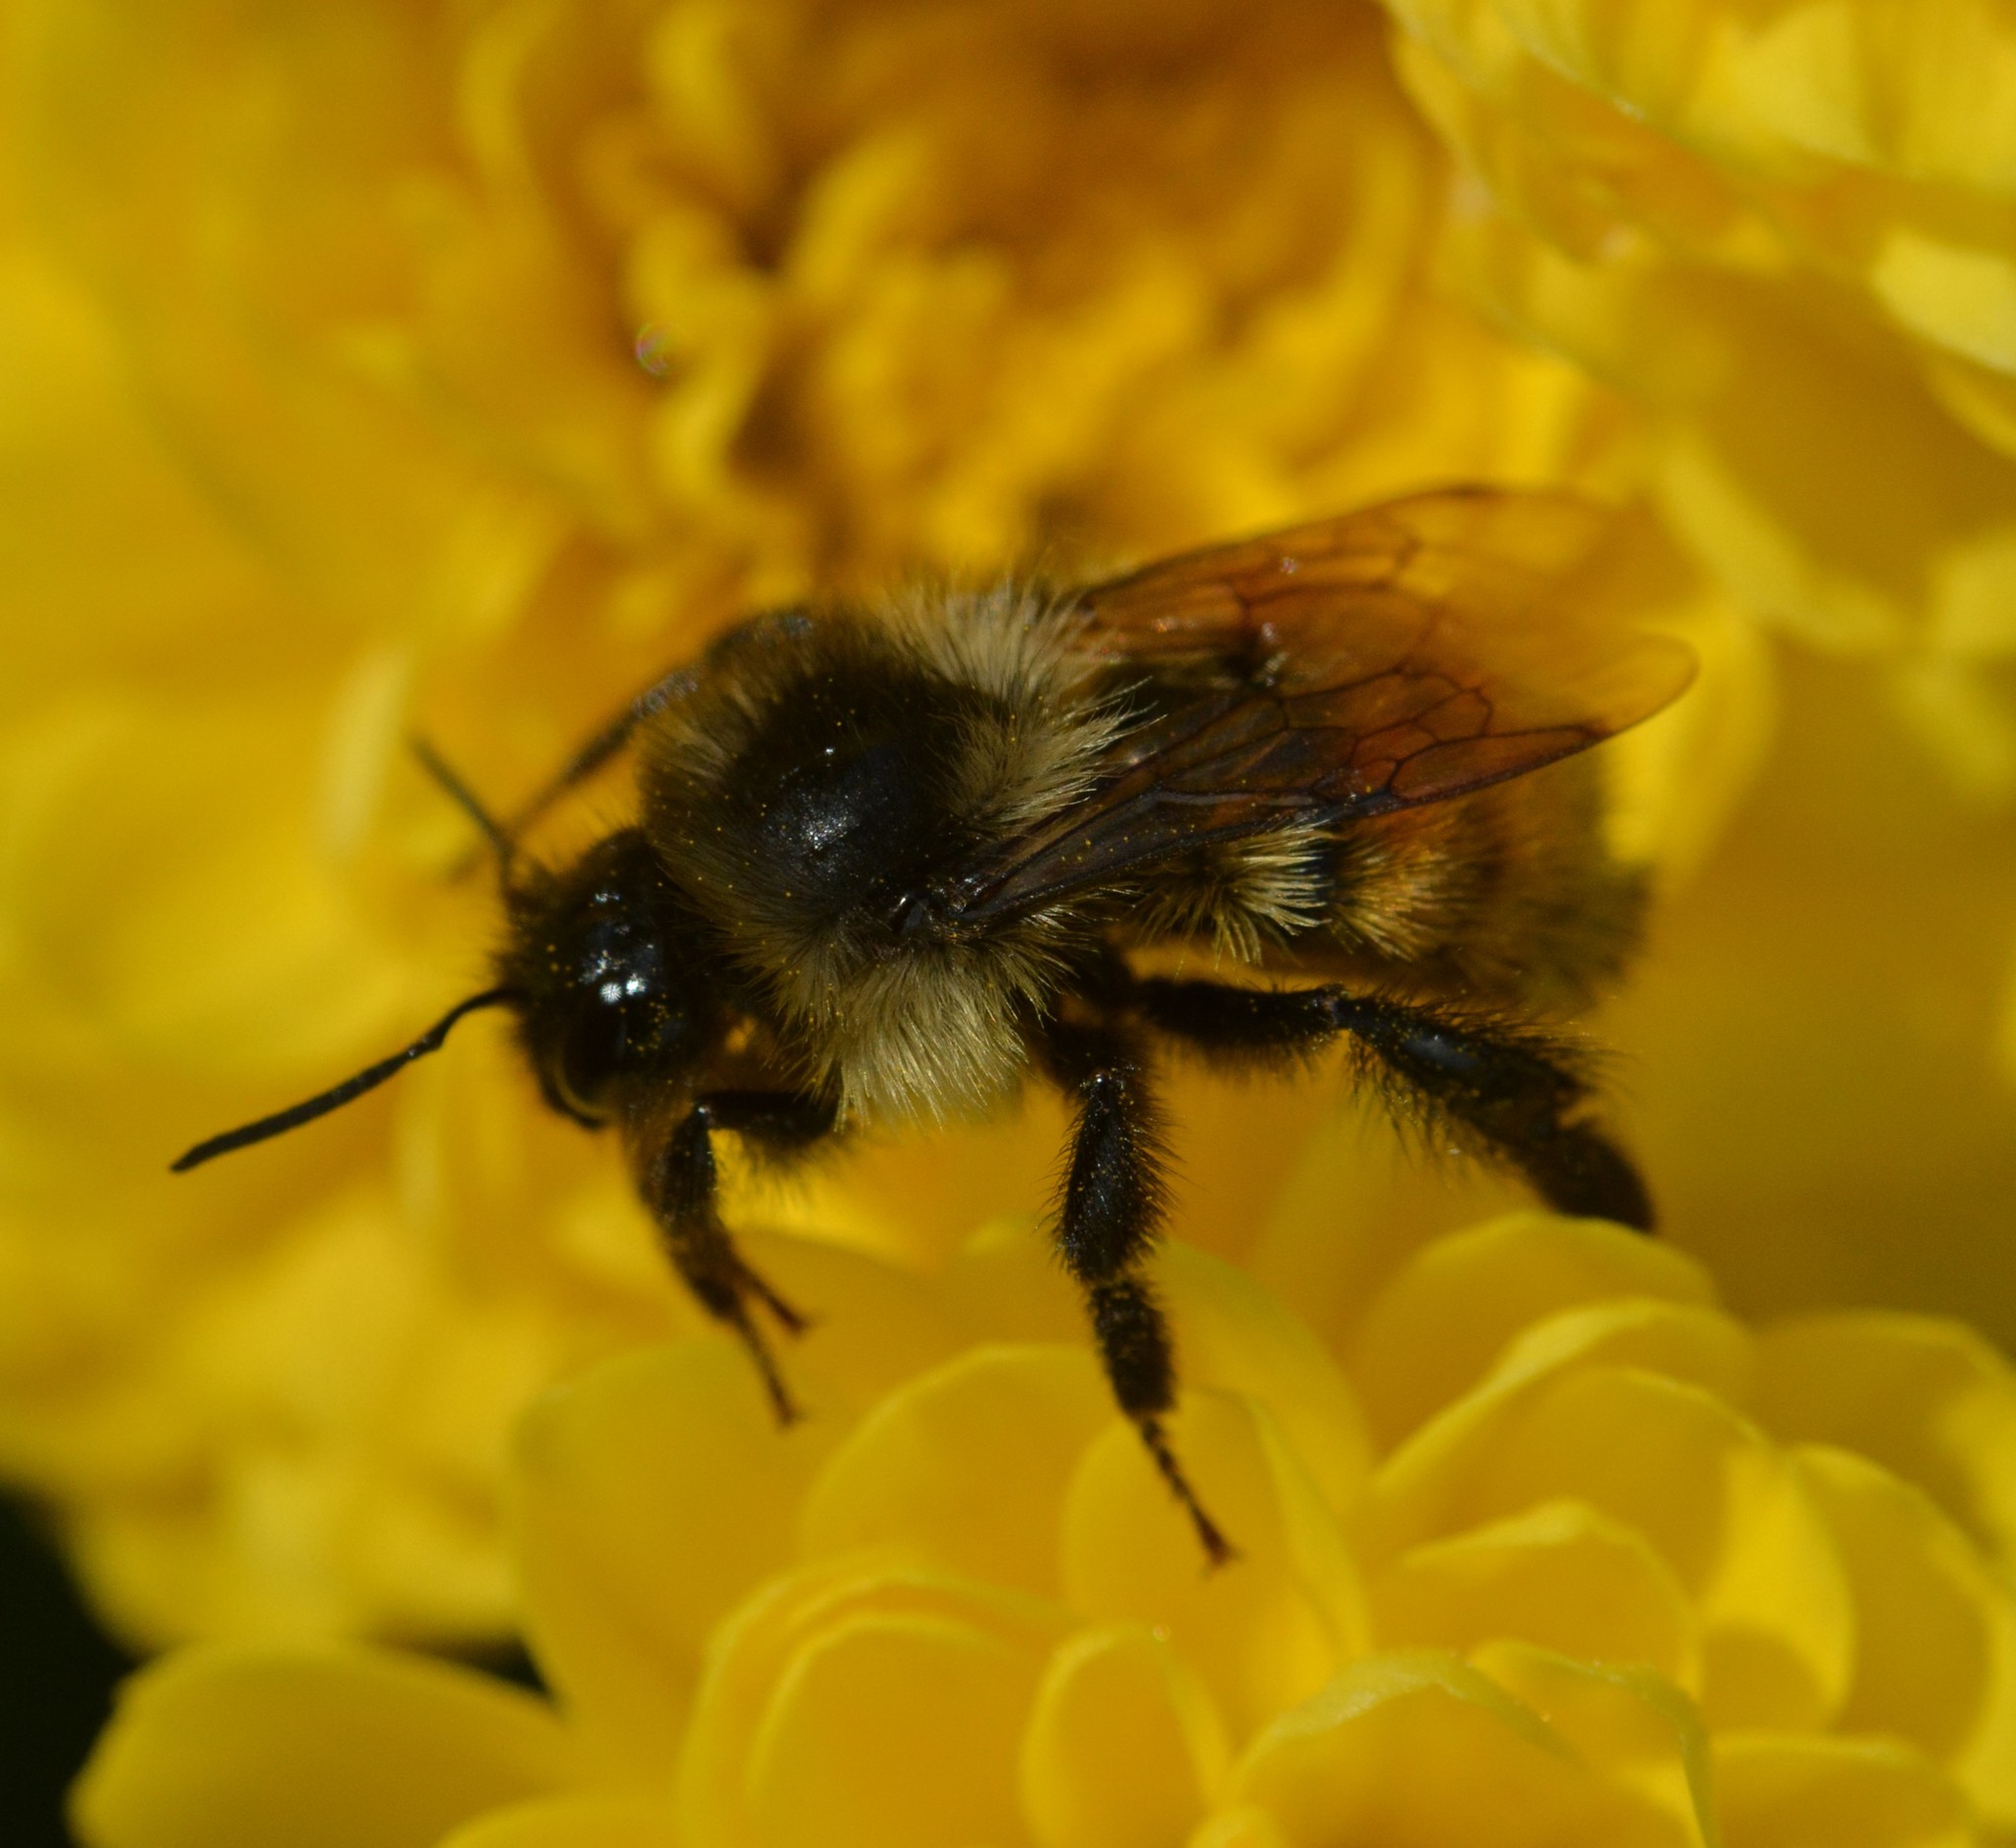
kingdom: Animalia
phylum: Arthropoda
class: Insecta
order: Hymenoptera
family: Apidae
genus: Bombus
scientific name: Bombus ternarius
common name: Tri-colored bumble bee
